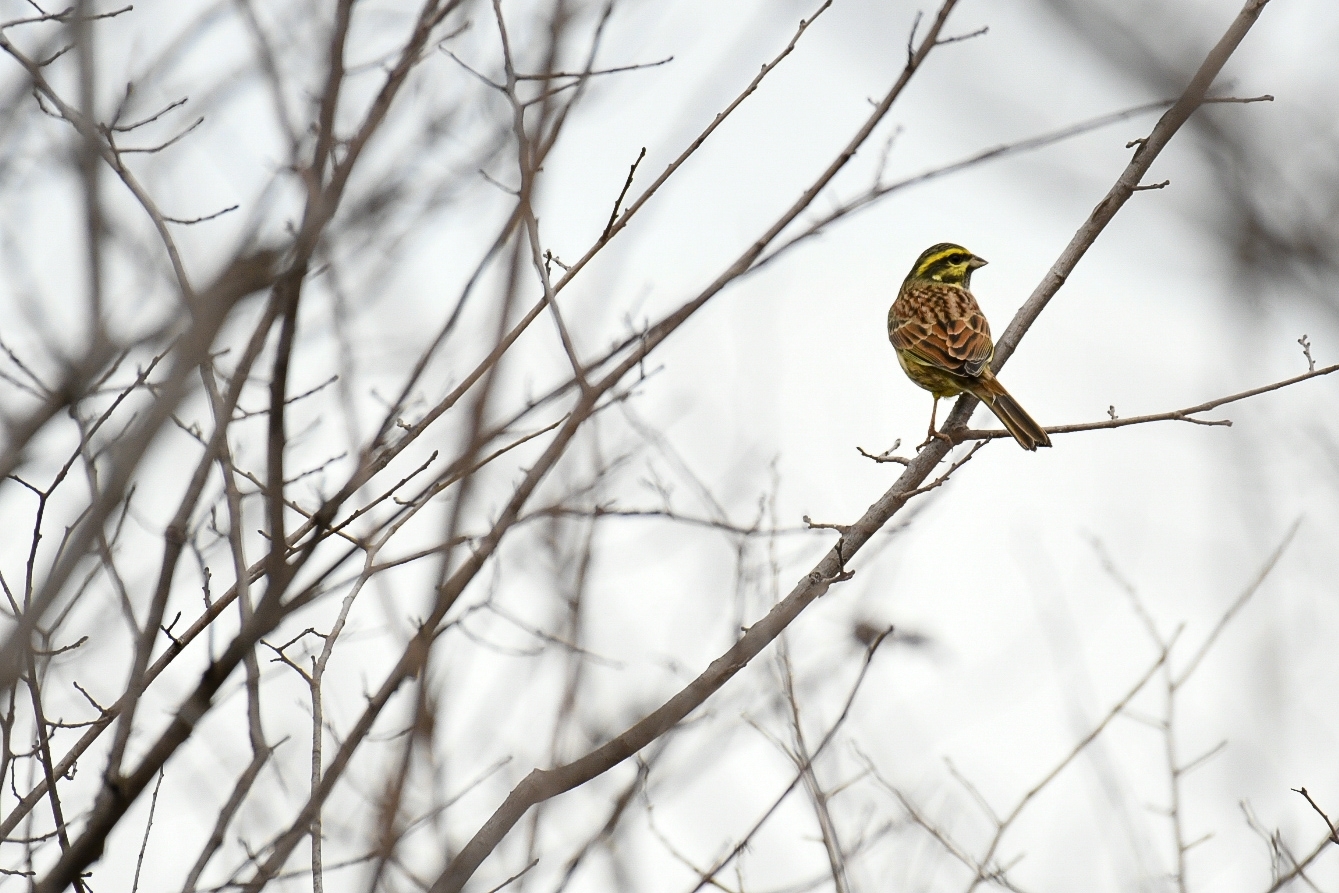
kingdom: Animalia
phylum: Chordata
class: Aves
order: Passeriformes
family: Emberizidae
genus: Emberiza
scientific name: Emberiza cirlus
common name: Cirl bunting
